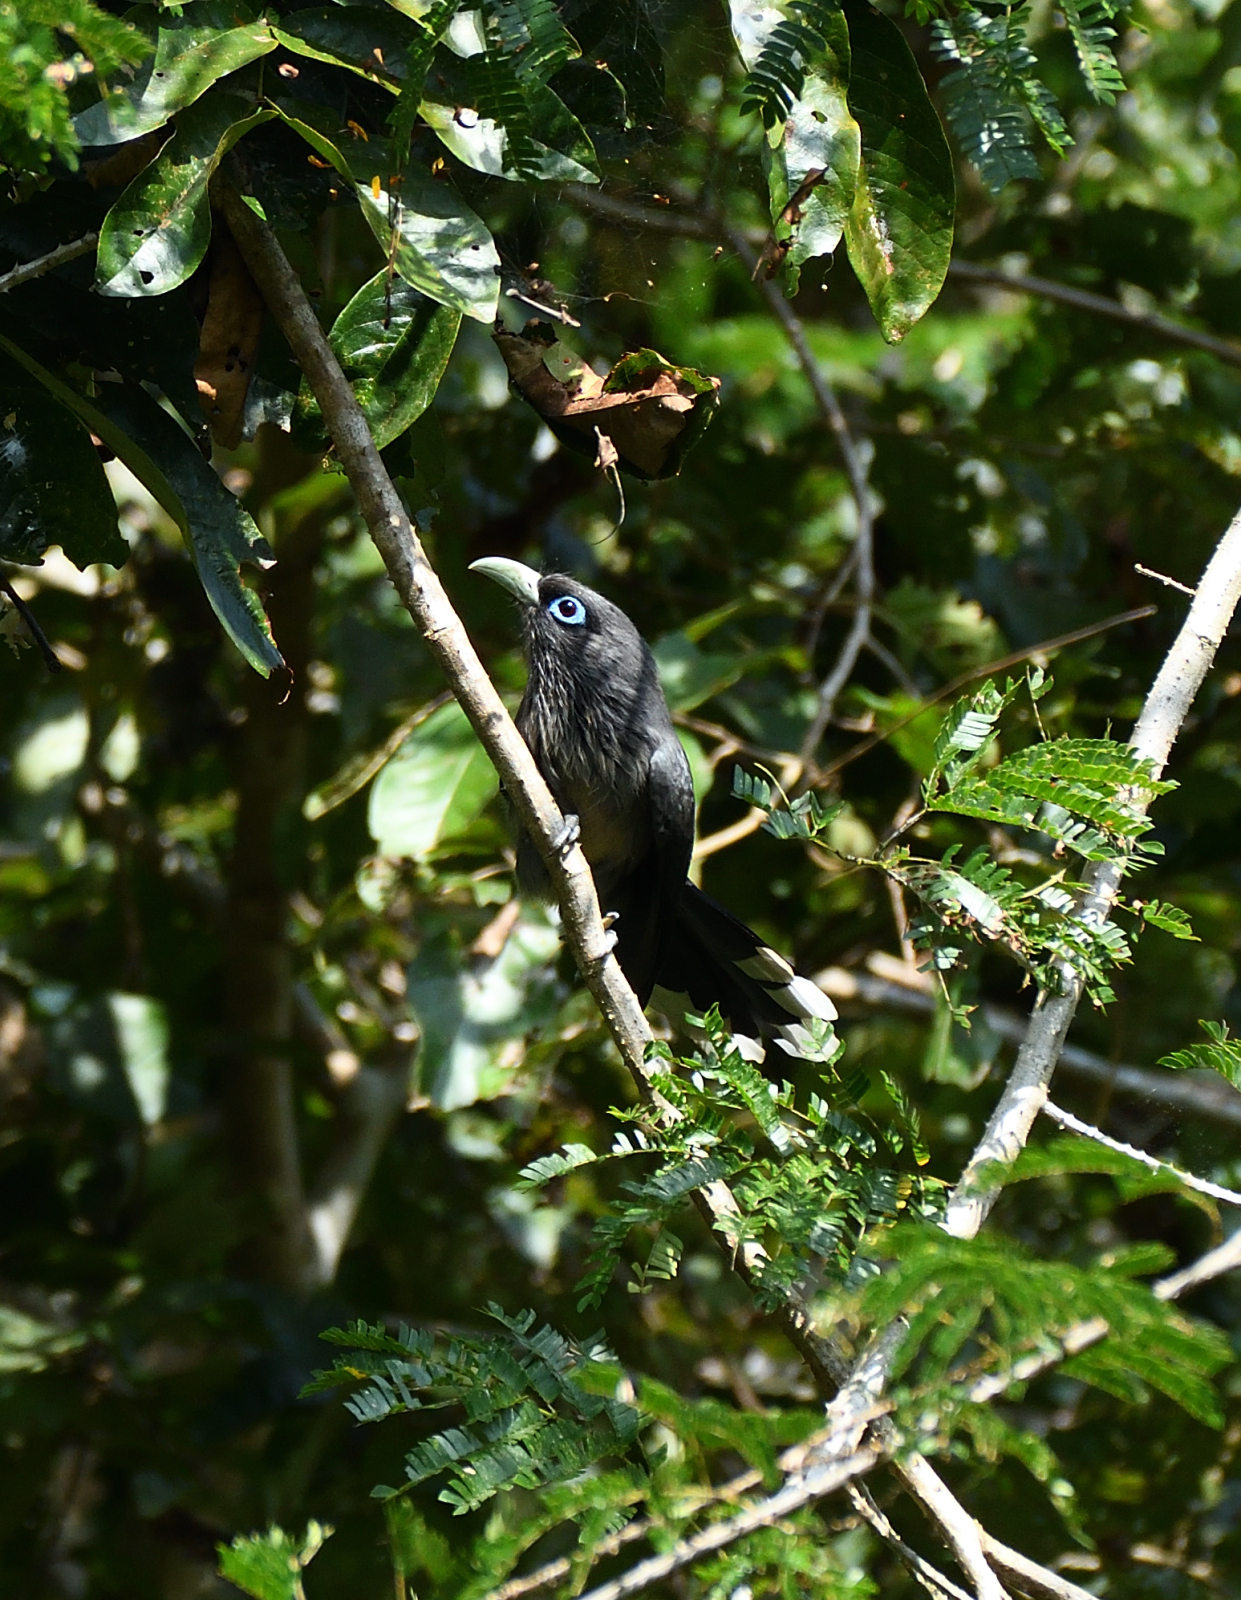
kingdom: Animalia
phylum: Chordata
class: Aves
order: Cuculiformes
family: Cuculidae
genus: Rhopodytes
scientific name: Rhopodytes viridirostris
